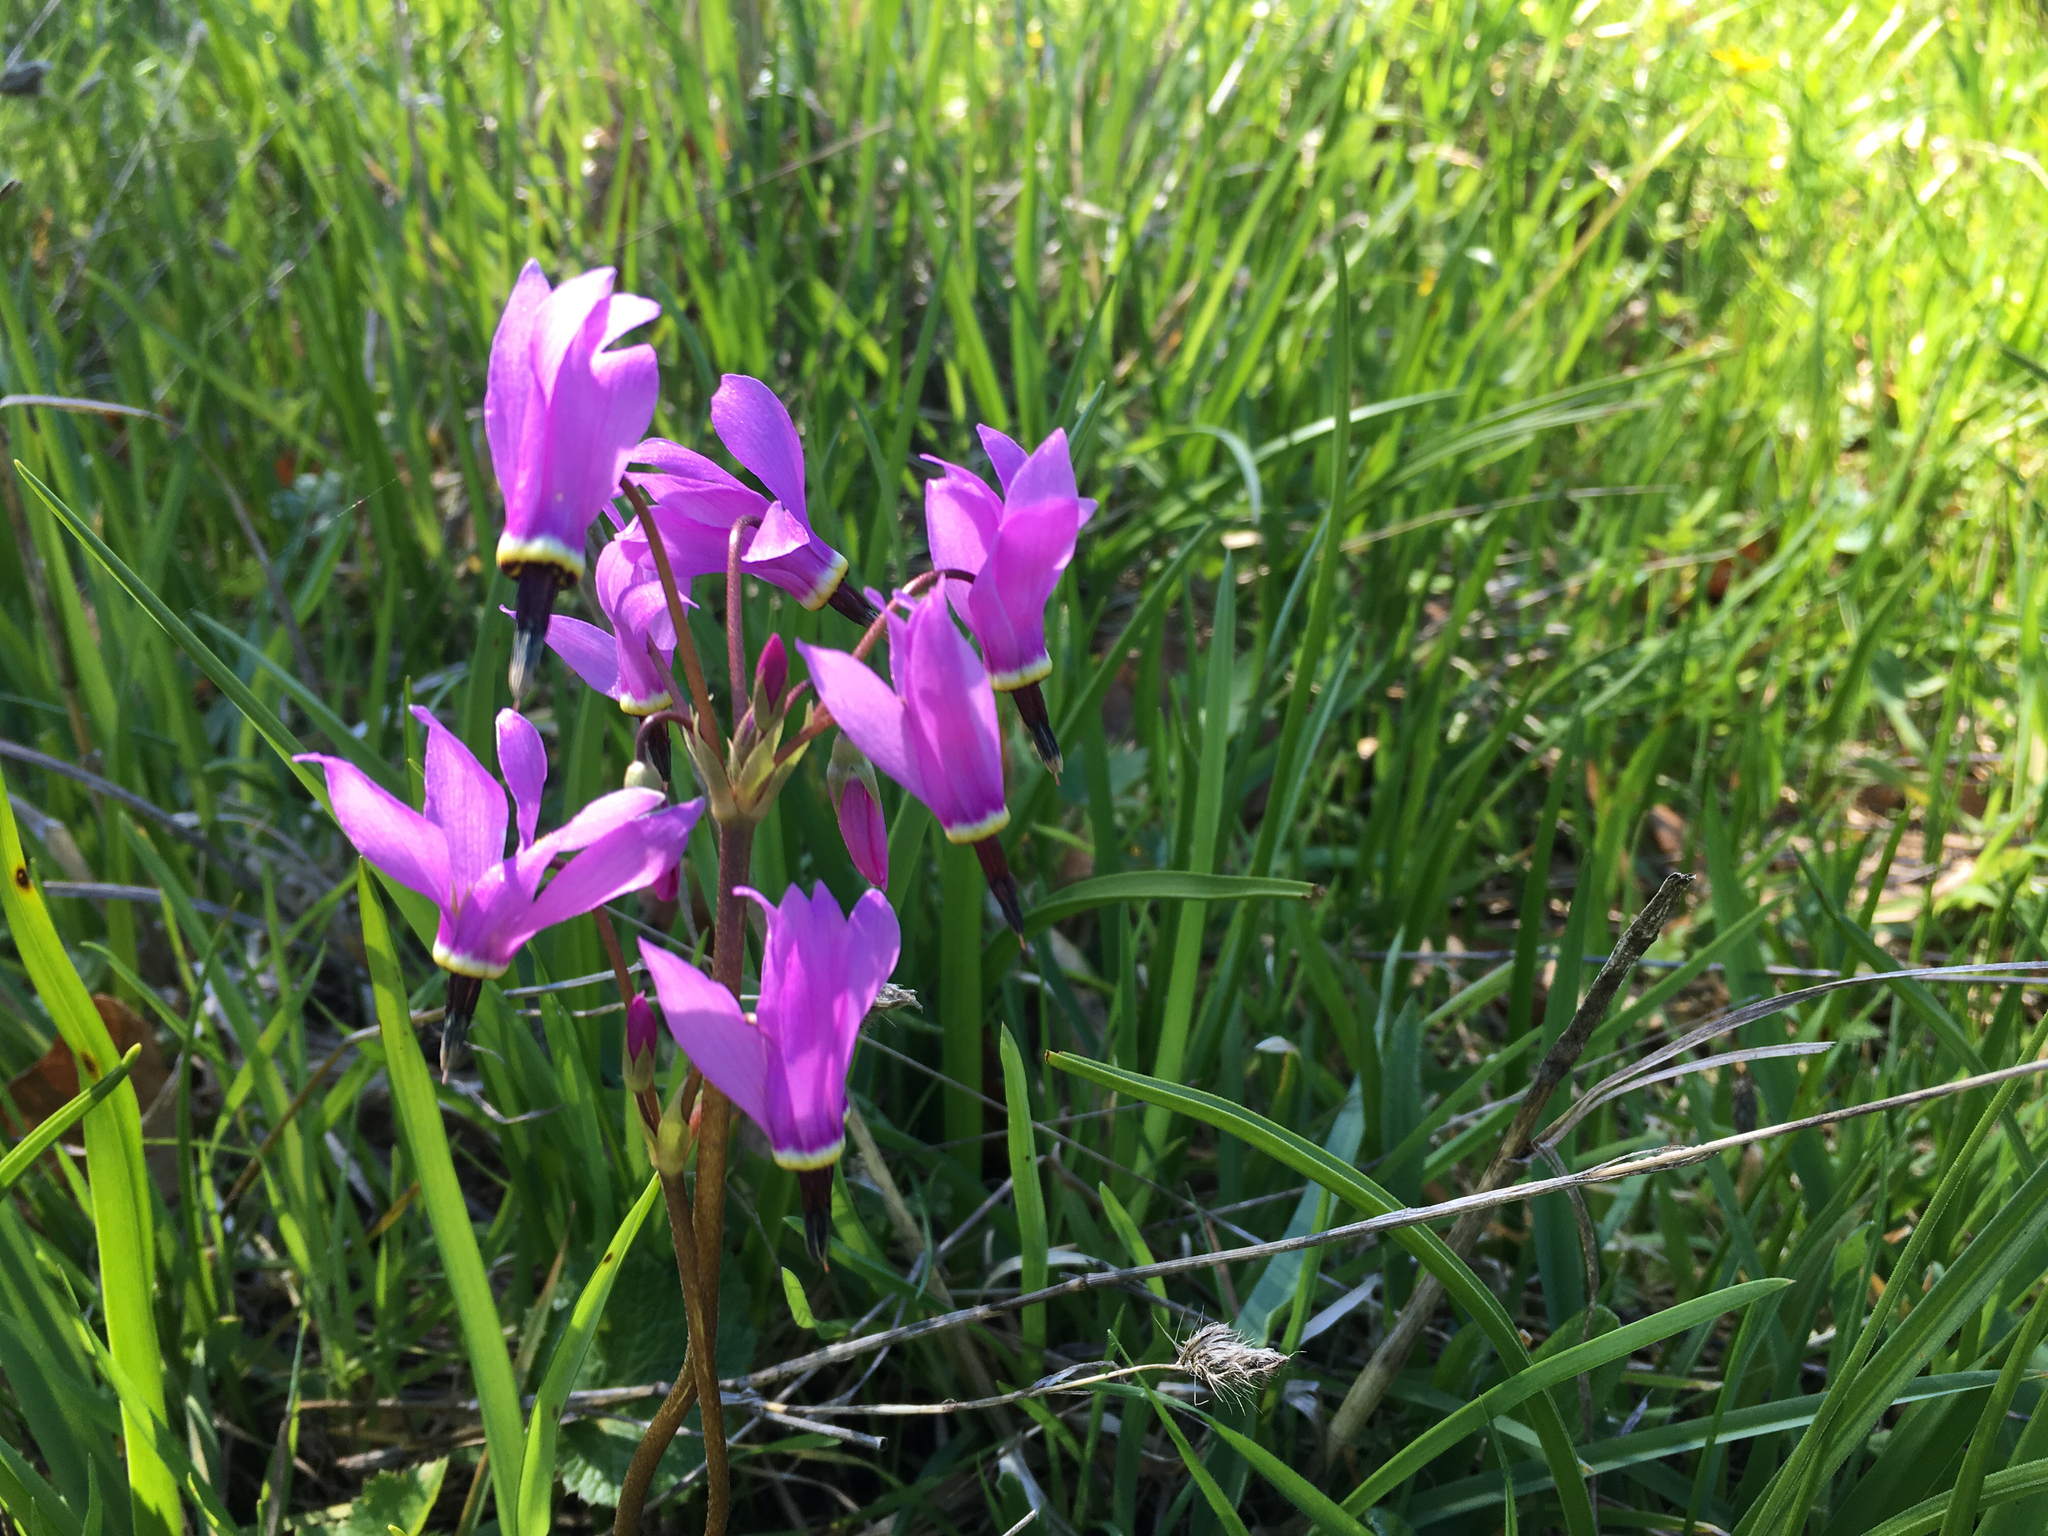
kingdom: Plantae
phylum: Tracheophyta
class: Magnoliopsida
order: Ericales
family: Primulaceae
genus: Dodecatheon
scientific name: Dodecatheon hendersonii
